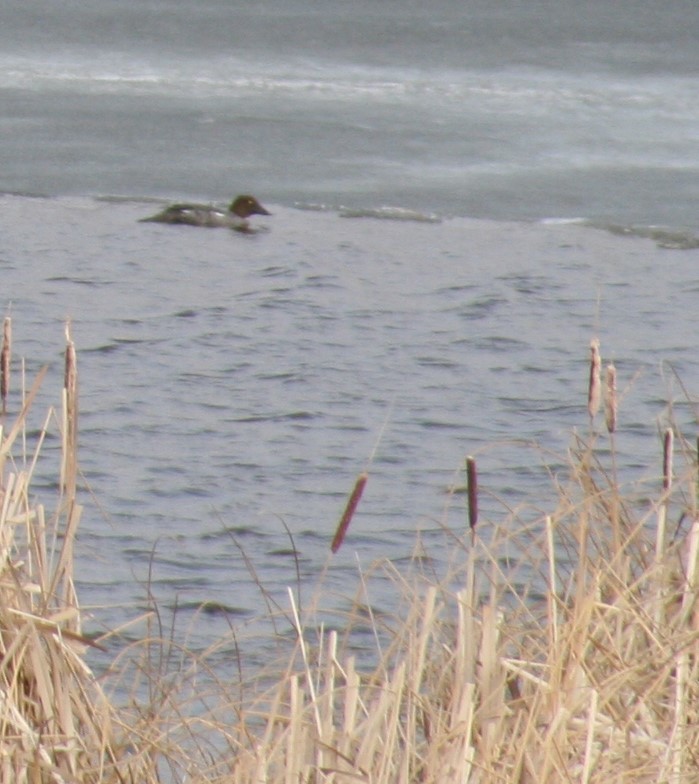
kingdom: Animalia
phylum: Chordata
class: Aves
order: Anseriformes
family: Anatidae
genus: Bucephala
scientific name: Bucephala clangula
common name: Common goldeneye
